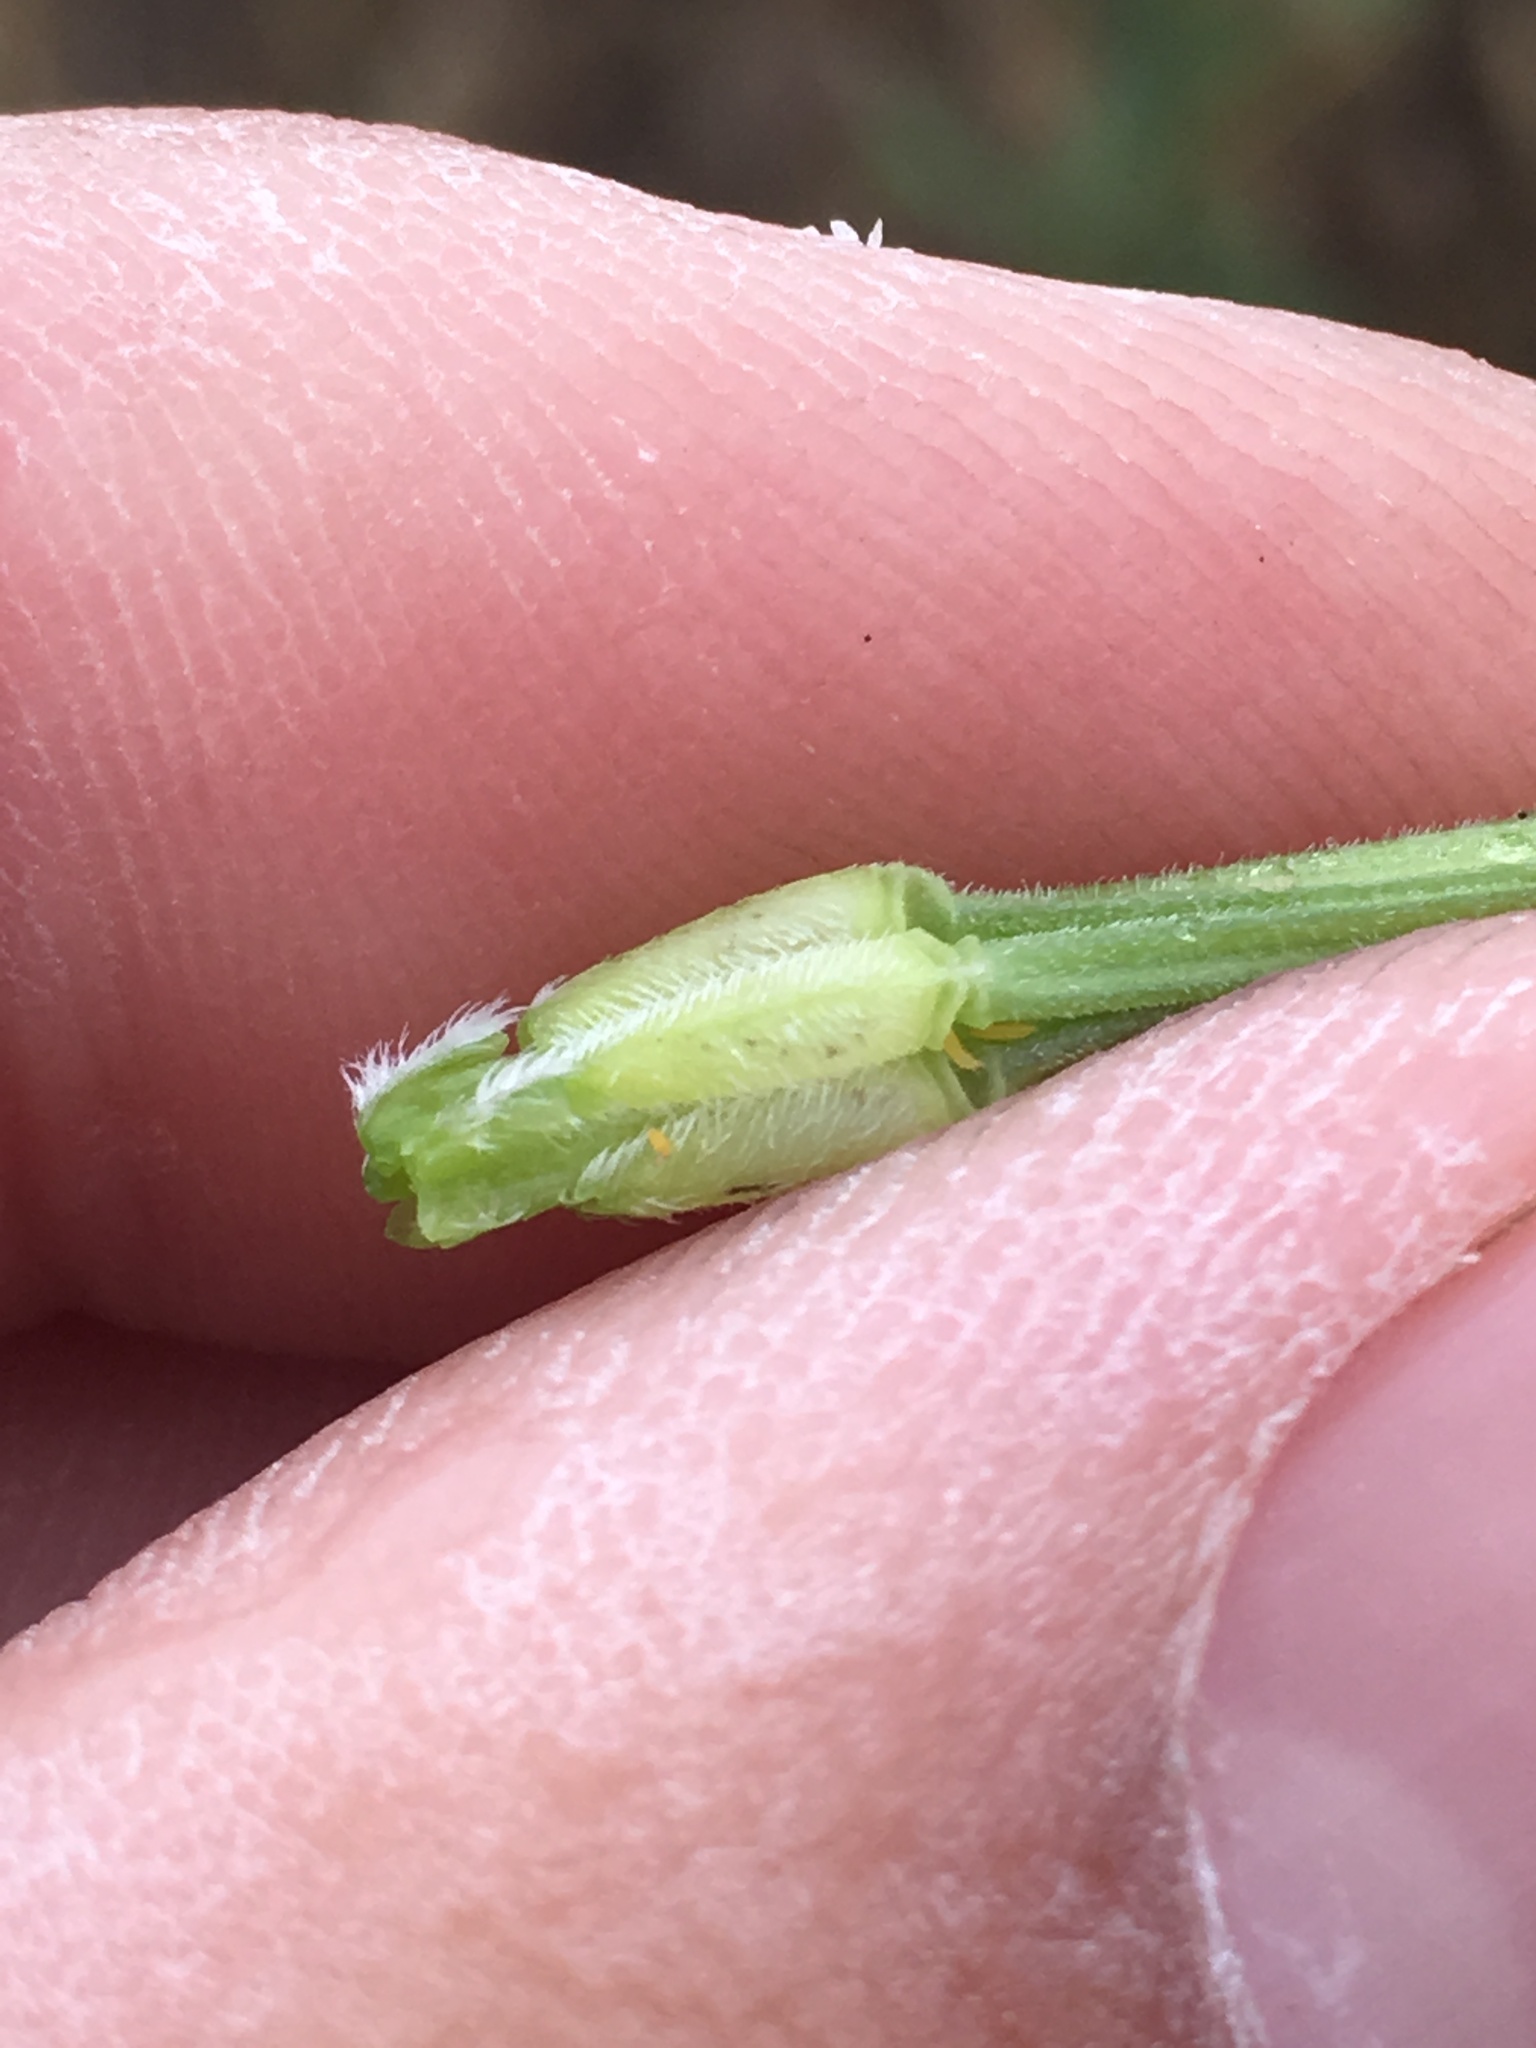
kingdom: Plantae
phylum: Tracheophyta
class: Magnoliopsida
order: Geraniales
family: Geraniaceae
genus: Erodium
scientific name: Erodium botrys
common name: Mediterranean stork's-bill
